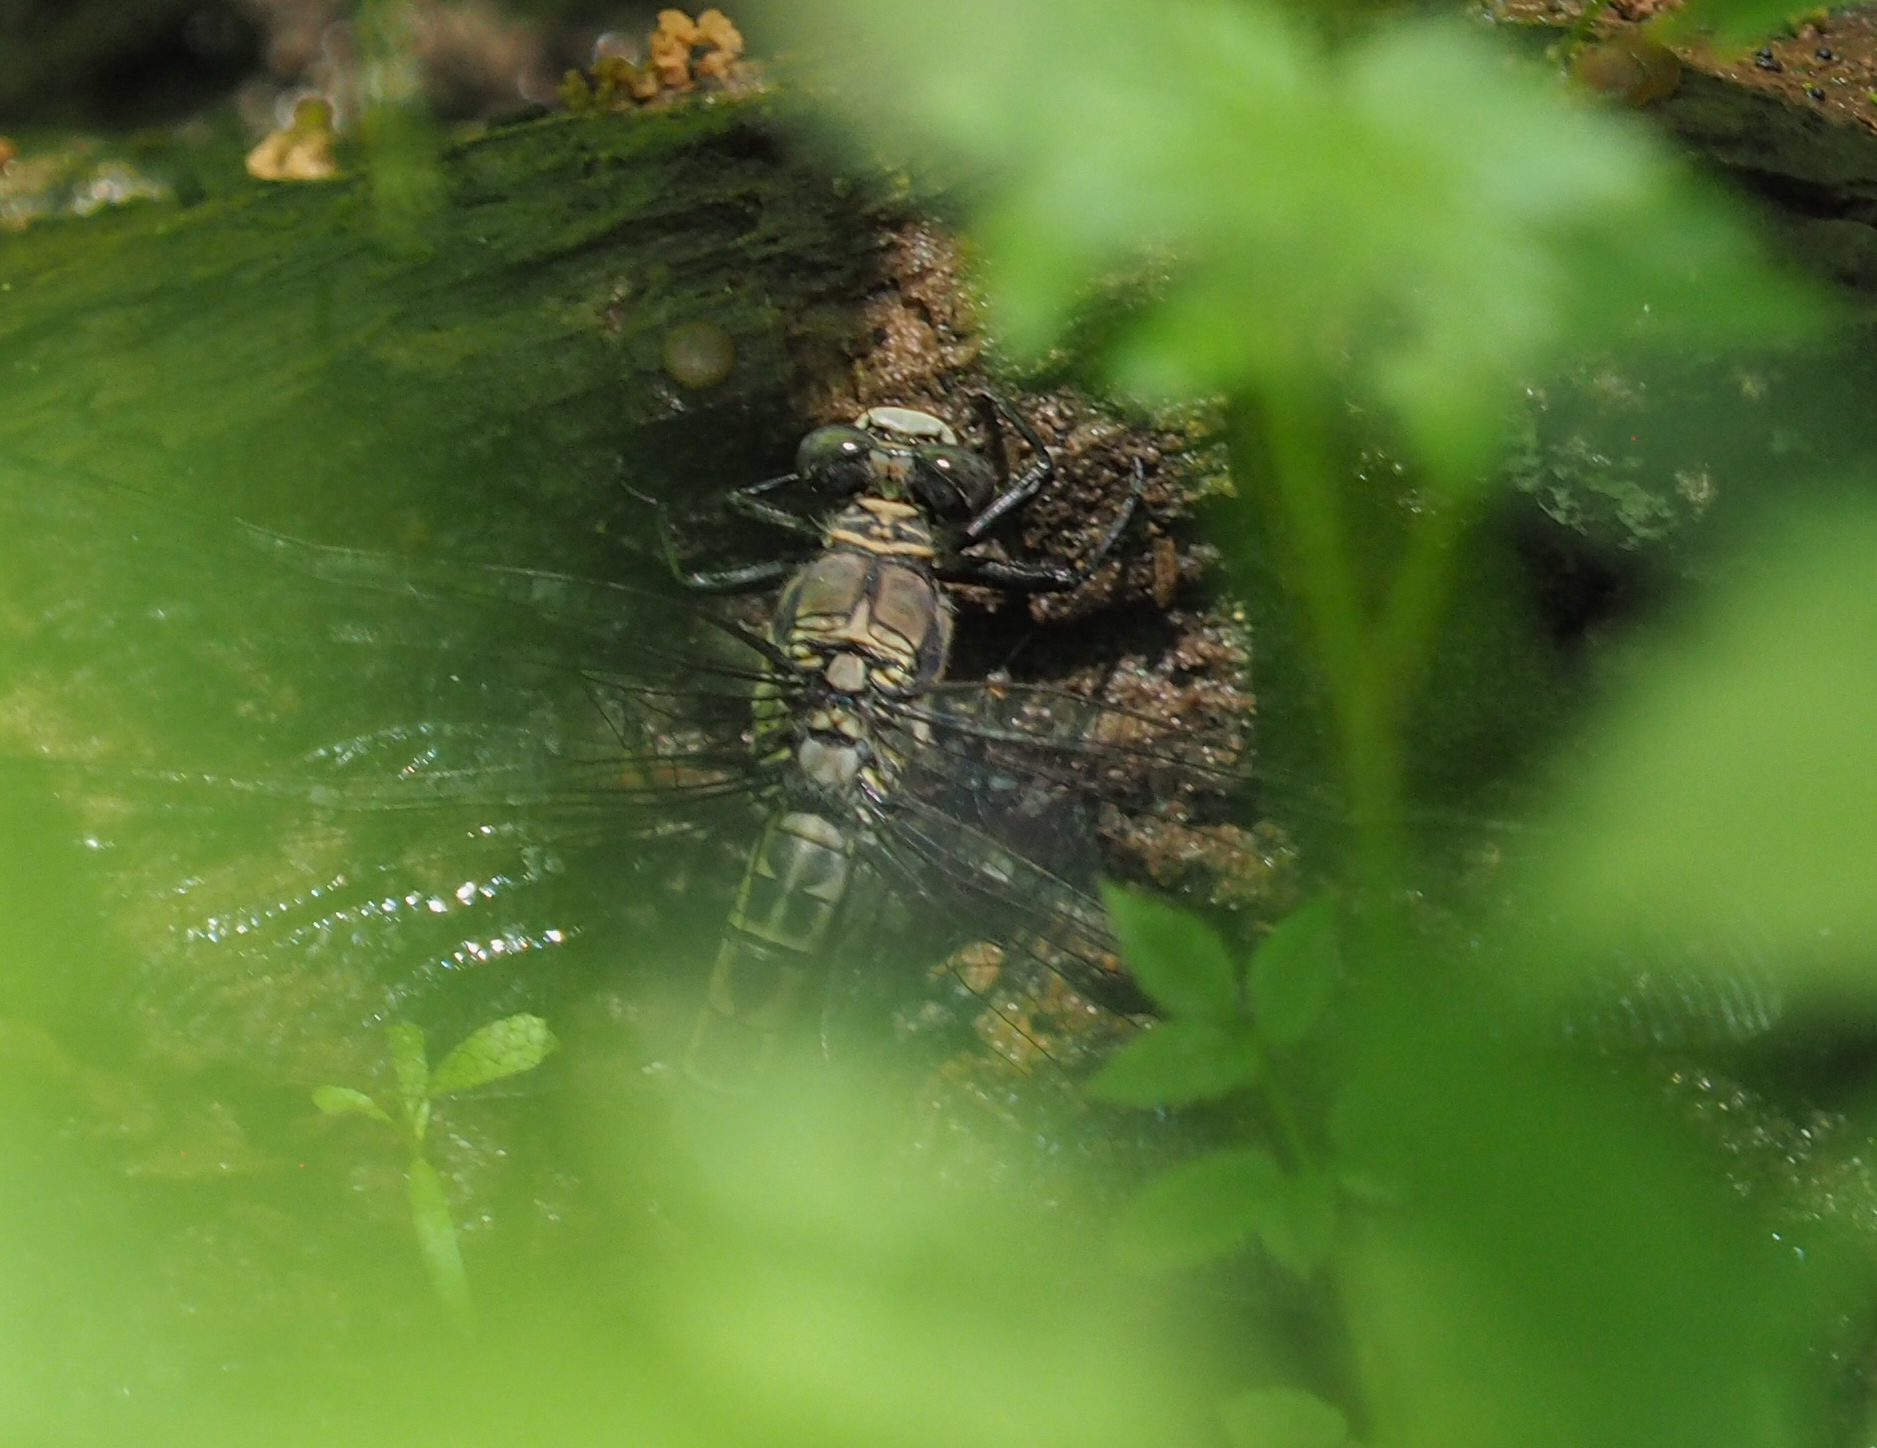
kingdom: Animalia
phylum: Arthropoda
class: Insecta
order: Odonata
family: Petaluridae
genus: Tachopteryx
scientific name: Tachopteryx thoreyi
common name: Gray petaltail
